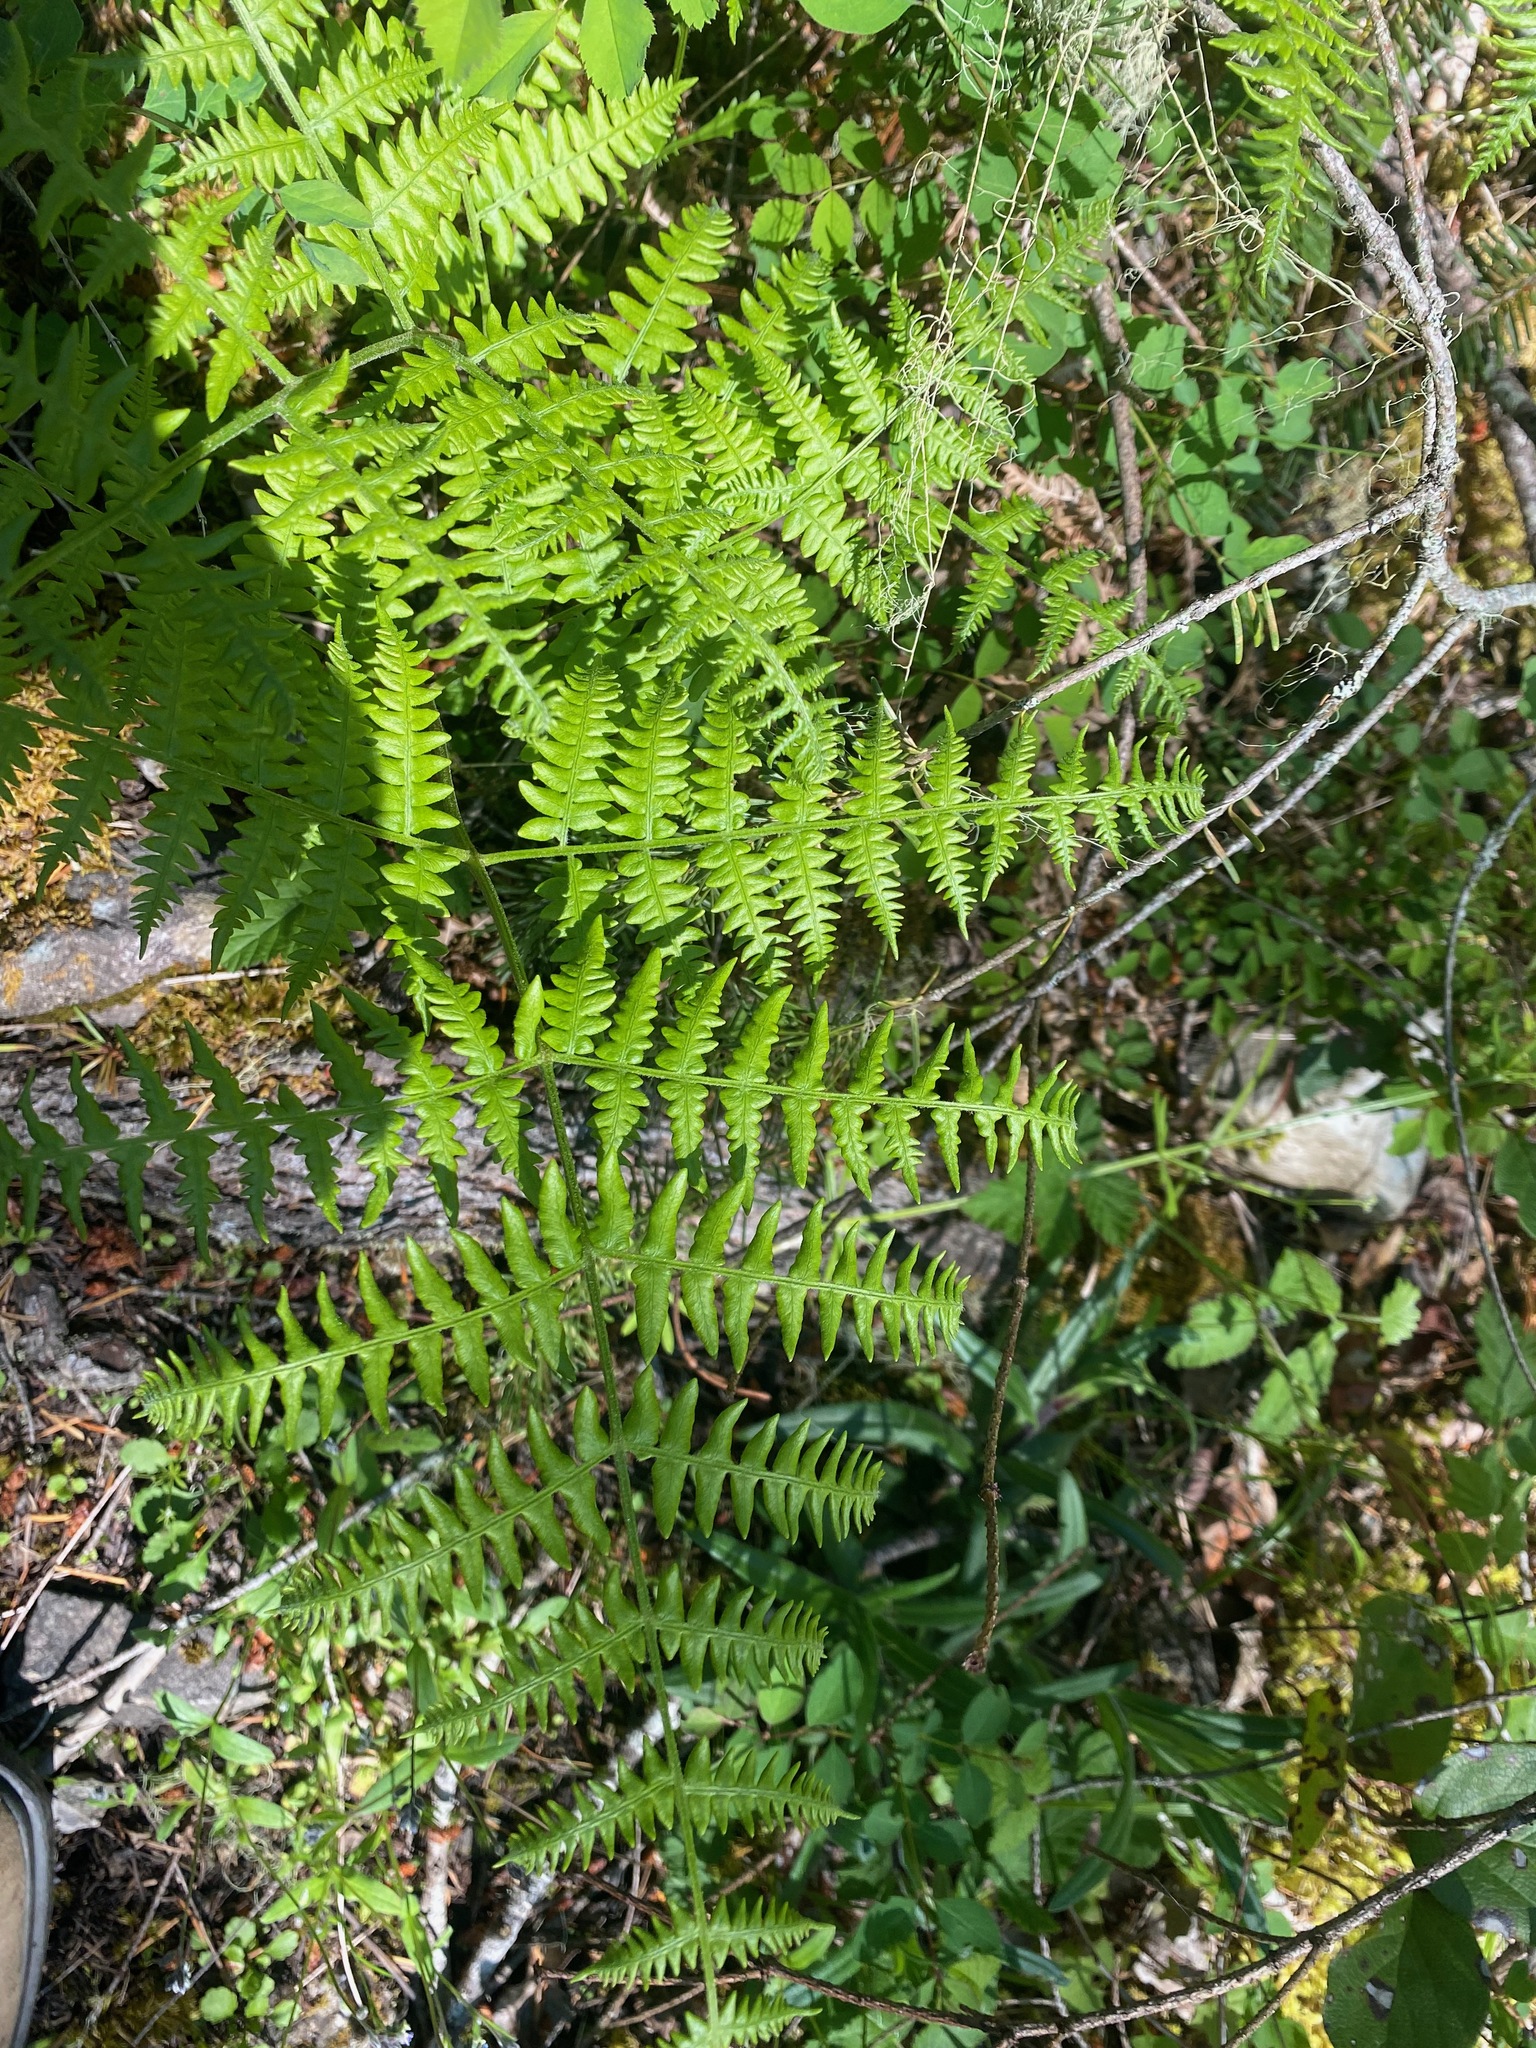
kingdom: Plantae
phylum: Tracheophyta
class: Polypodiopsida
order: Polypodiales
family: Dennstaedtiaceae
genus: Pteridium
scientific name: Pteridium aquilinum
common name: Bracken
